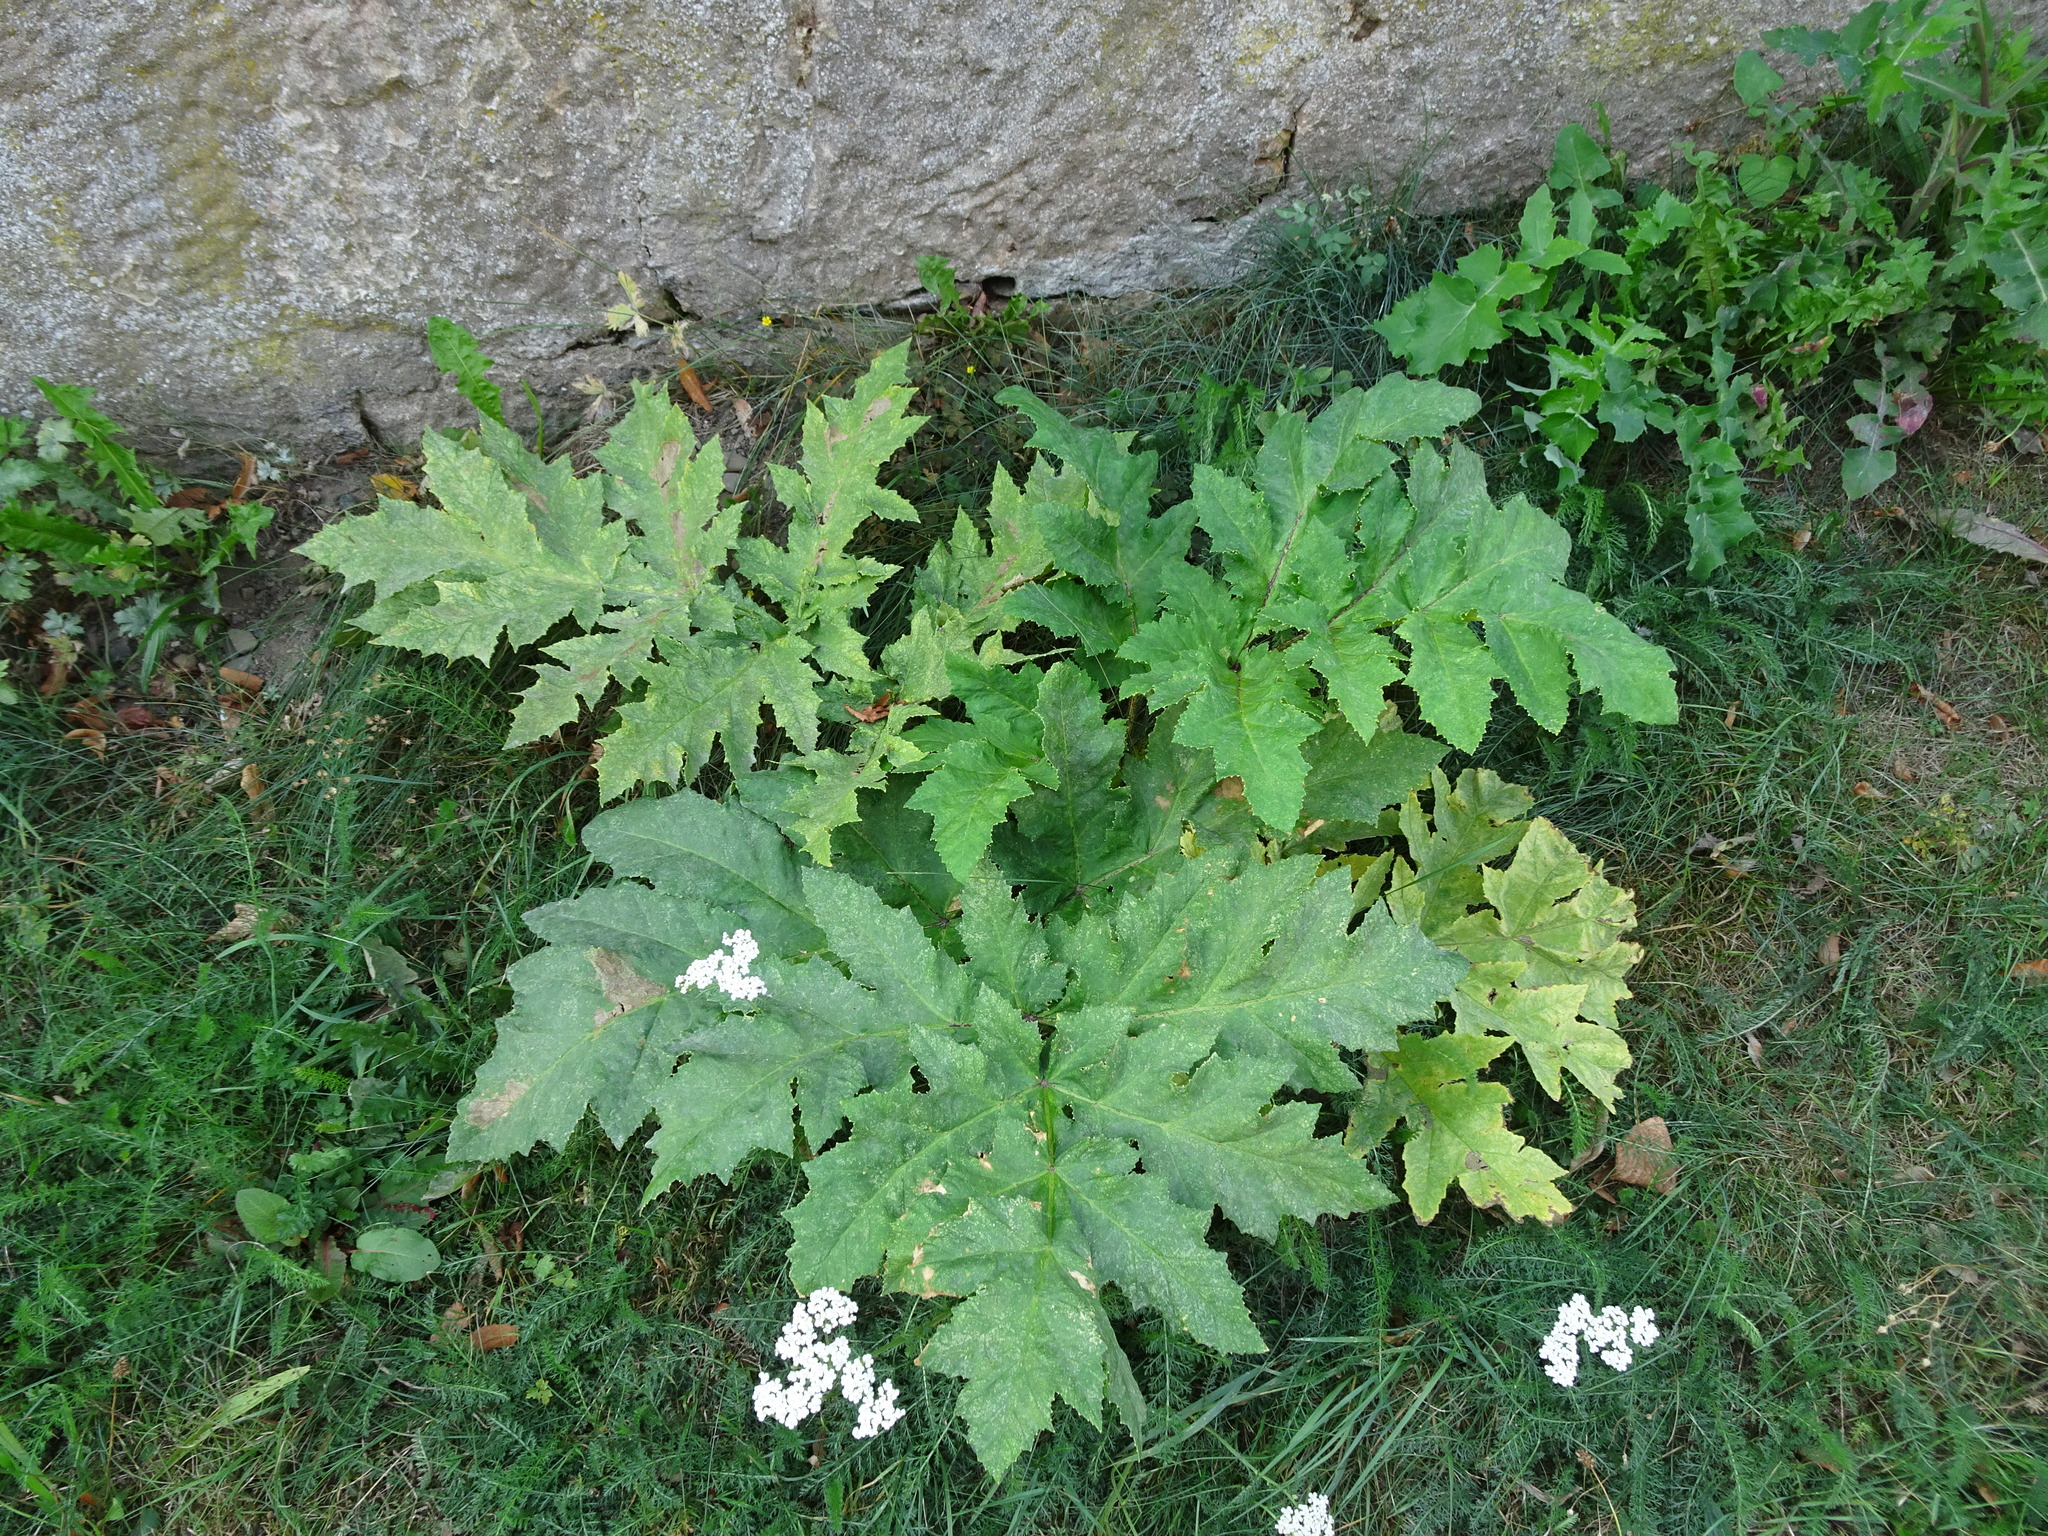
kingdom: Plantae
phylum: Tracheophyta
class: Magnoliopsida
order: Apiales
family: Apiaceae
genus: Heracleum
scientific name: Heracleum mantegazzianum
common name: Giant hogweed
